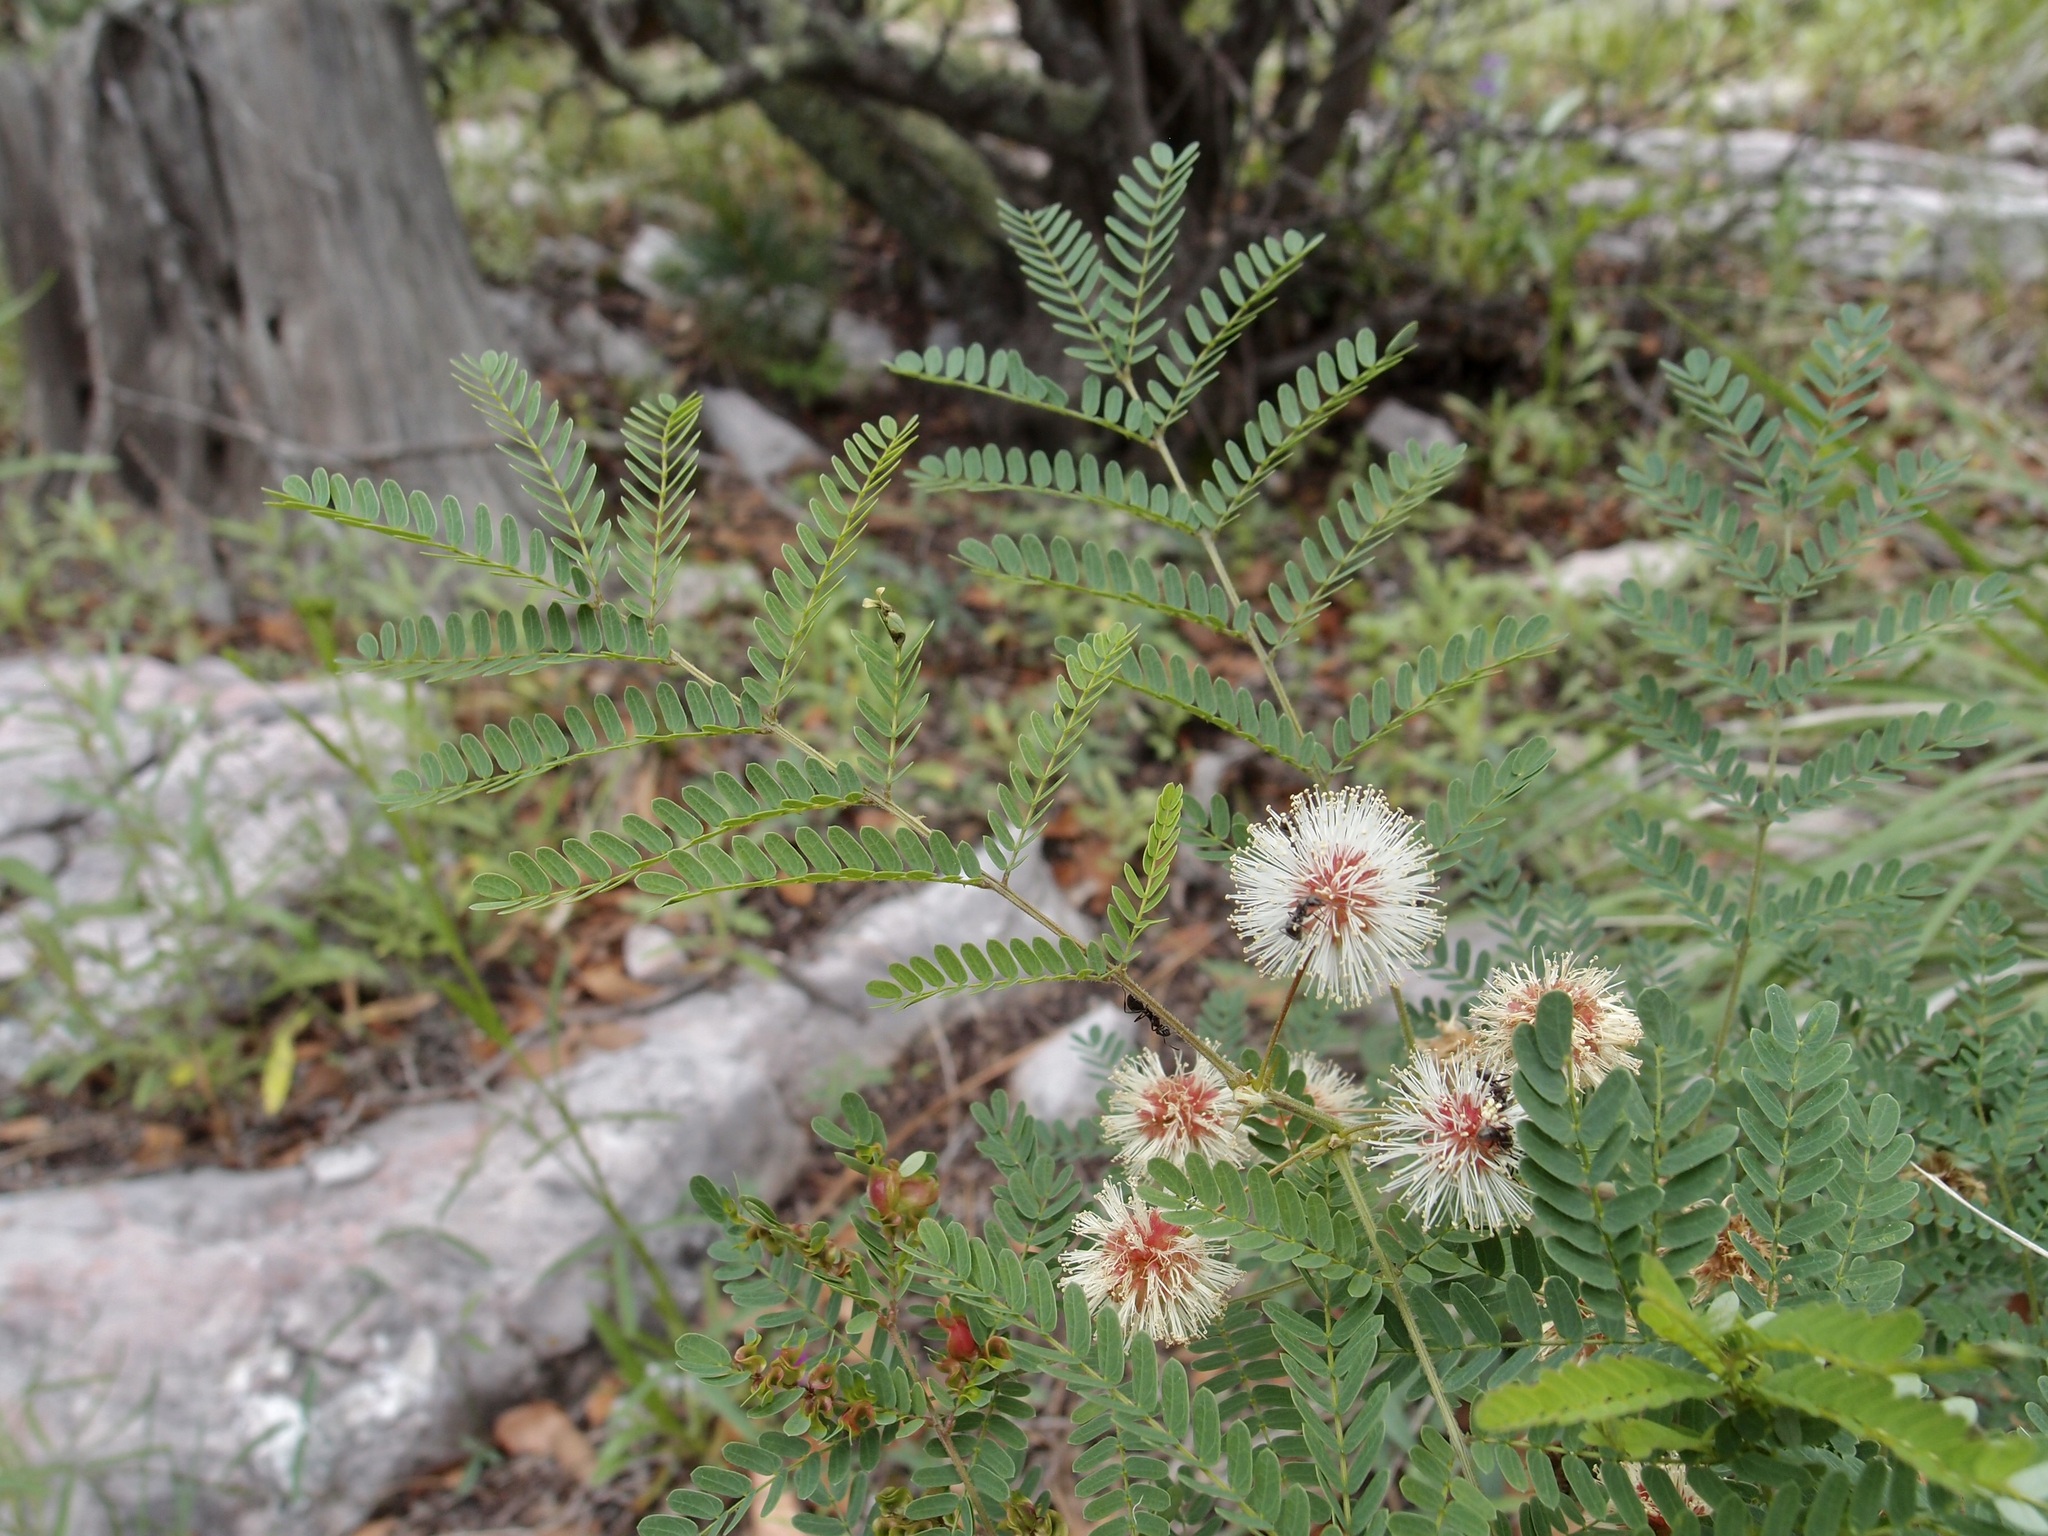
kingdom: Plantae
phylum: Tracheophyta
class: Magnoliopsida
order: Fabales
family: Fabaceae
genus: Mimosa
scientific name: Mimosa grahamii
